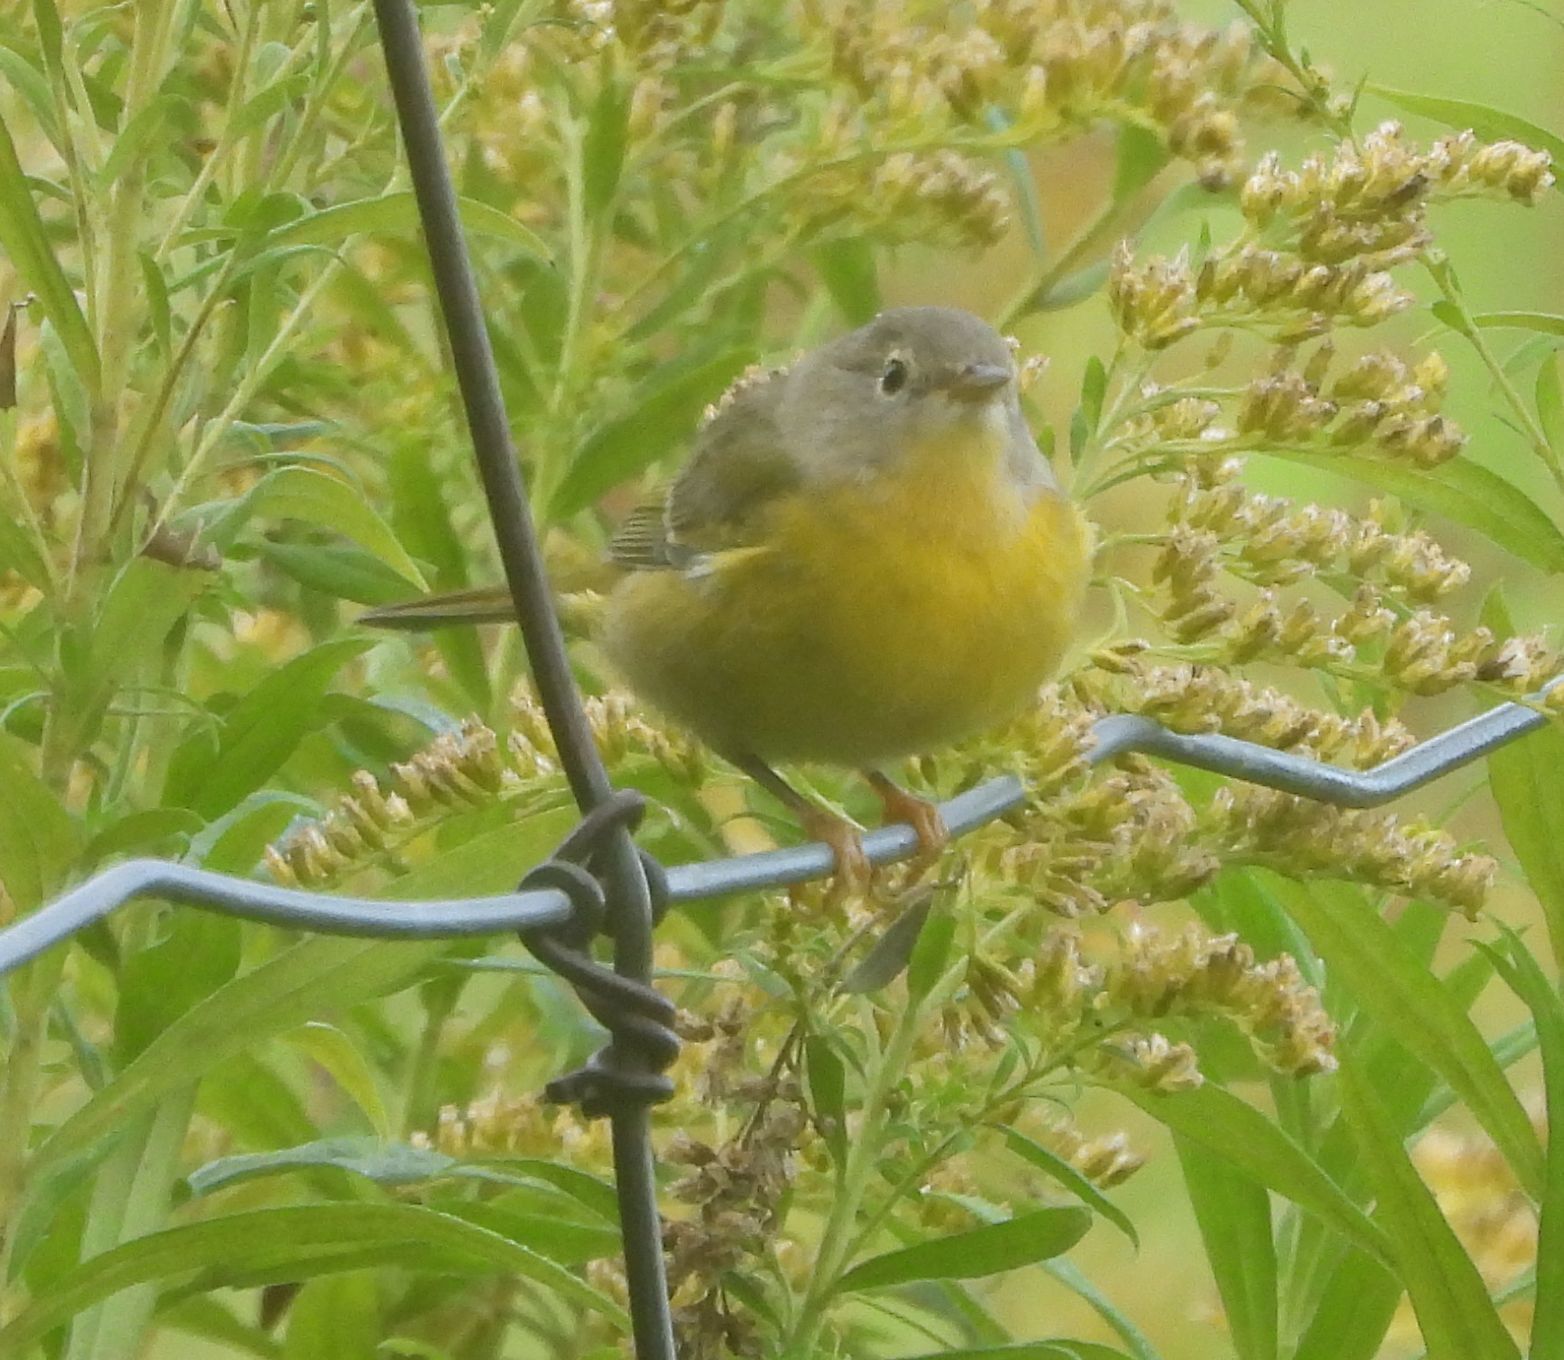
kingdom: Animalia
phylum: Chordata
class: Aves
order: Passeriformes
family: Parulidae
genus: Leiothlypis
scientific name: Leiothlypis ruficapilla
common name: Nashville warbler
